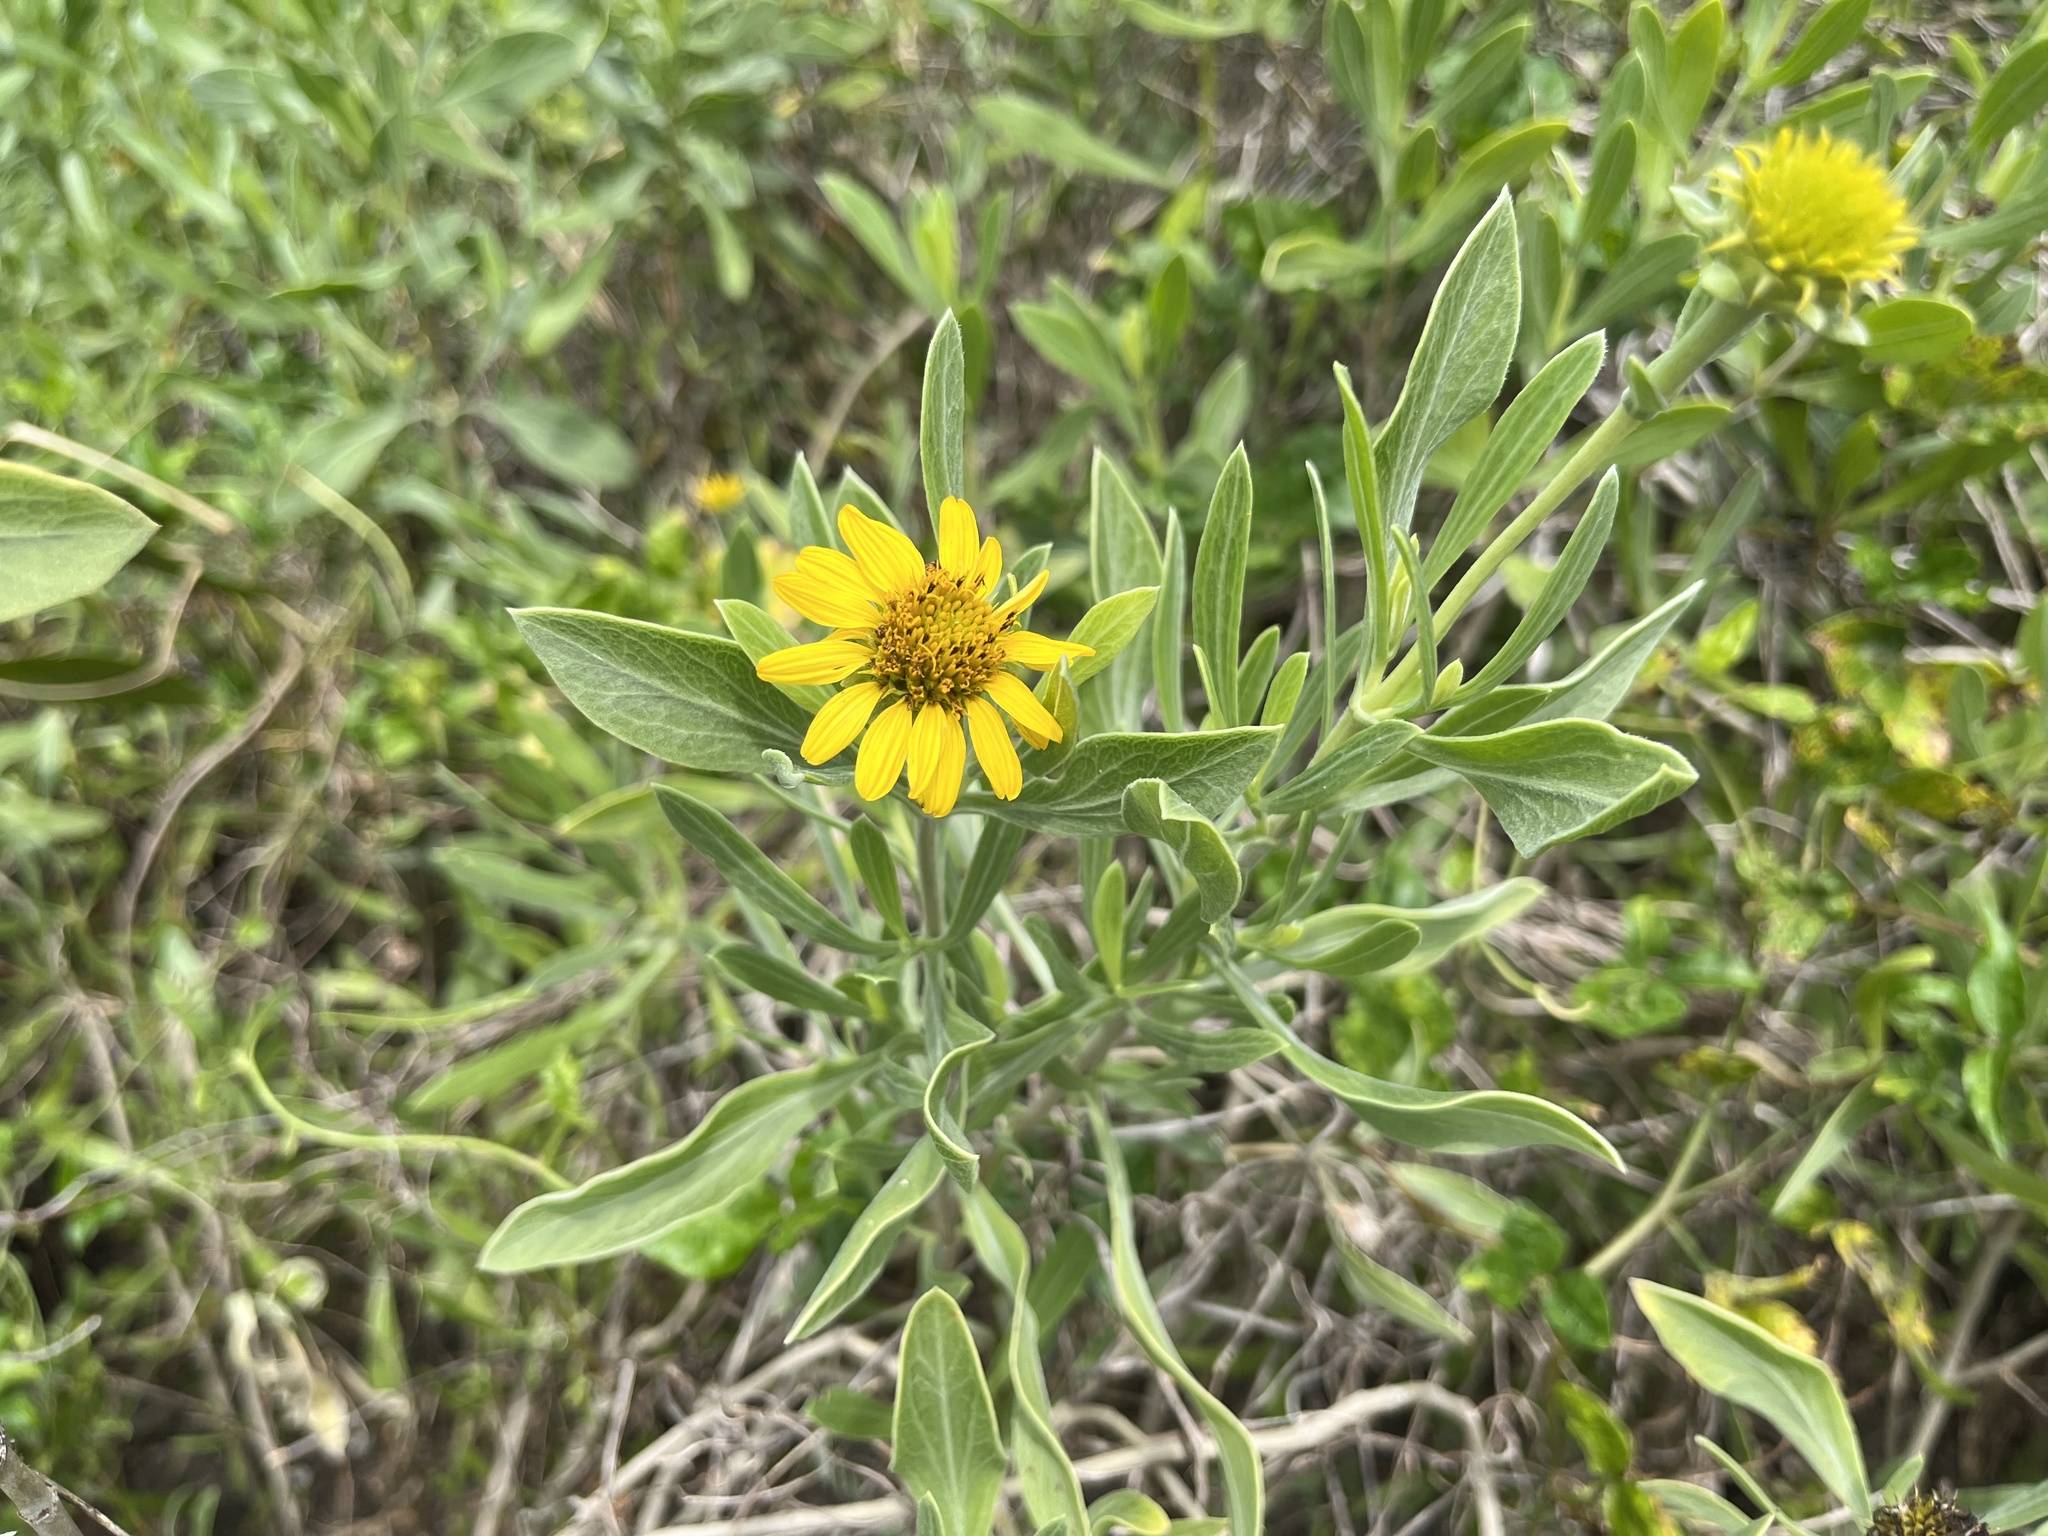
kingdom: Plantae
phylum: Tracheophyta
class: Magnoliopsida
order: Asterales
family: Asteraceae
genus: Borrichia
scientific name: Borrichia frutescens
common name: Sea oxeye
